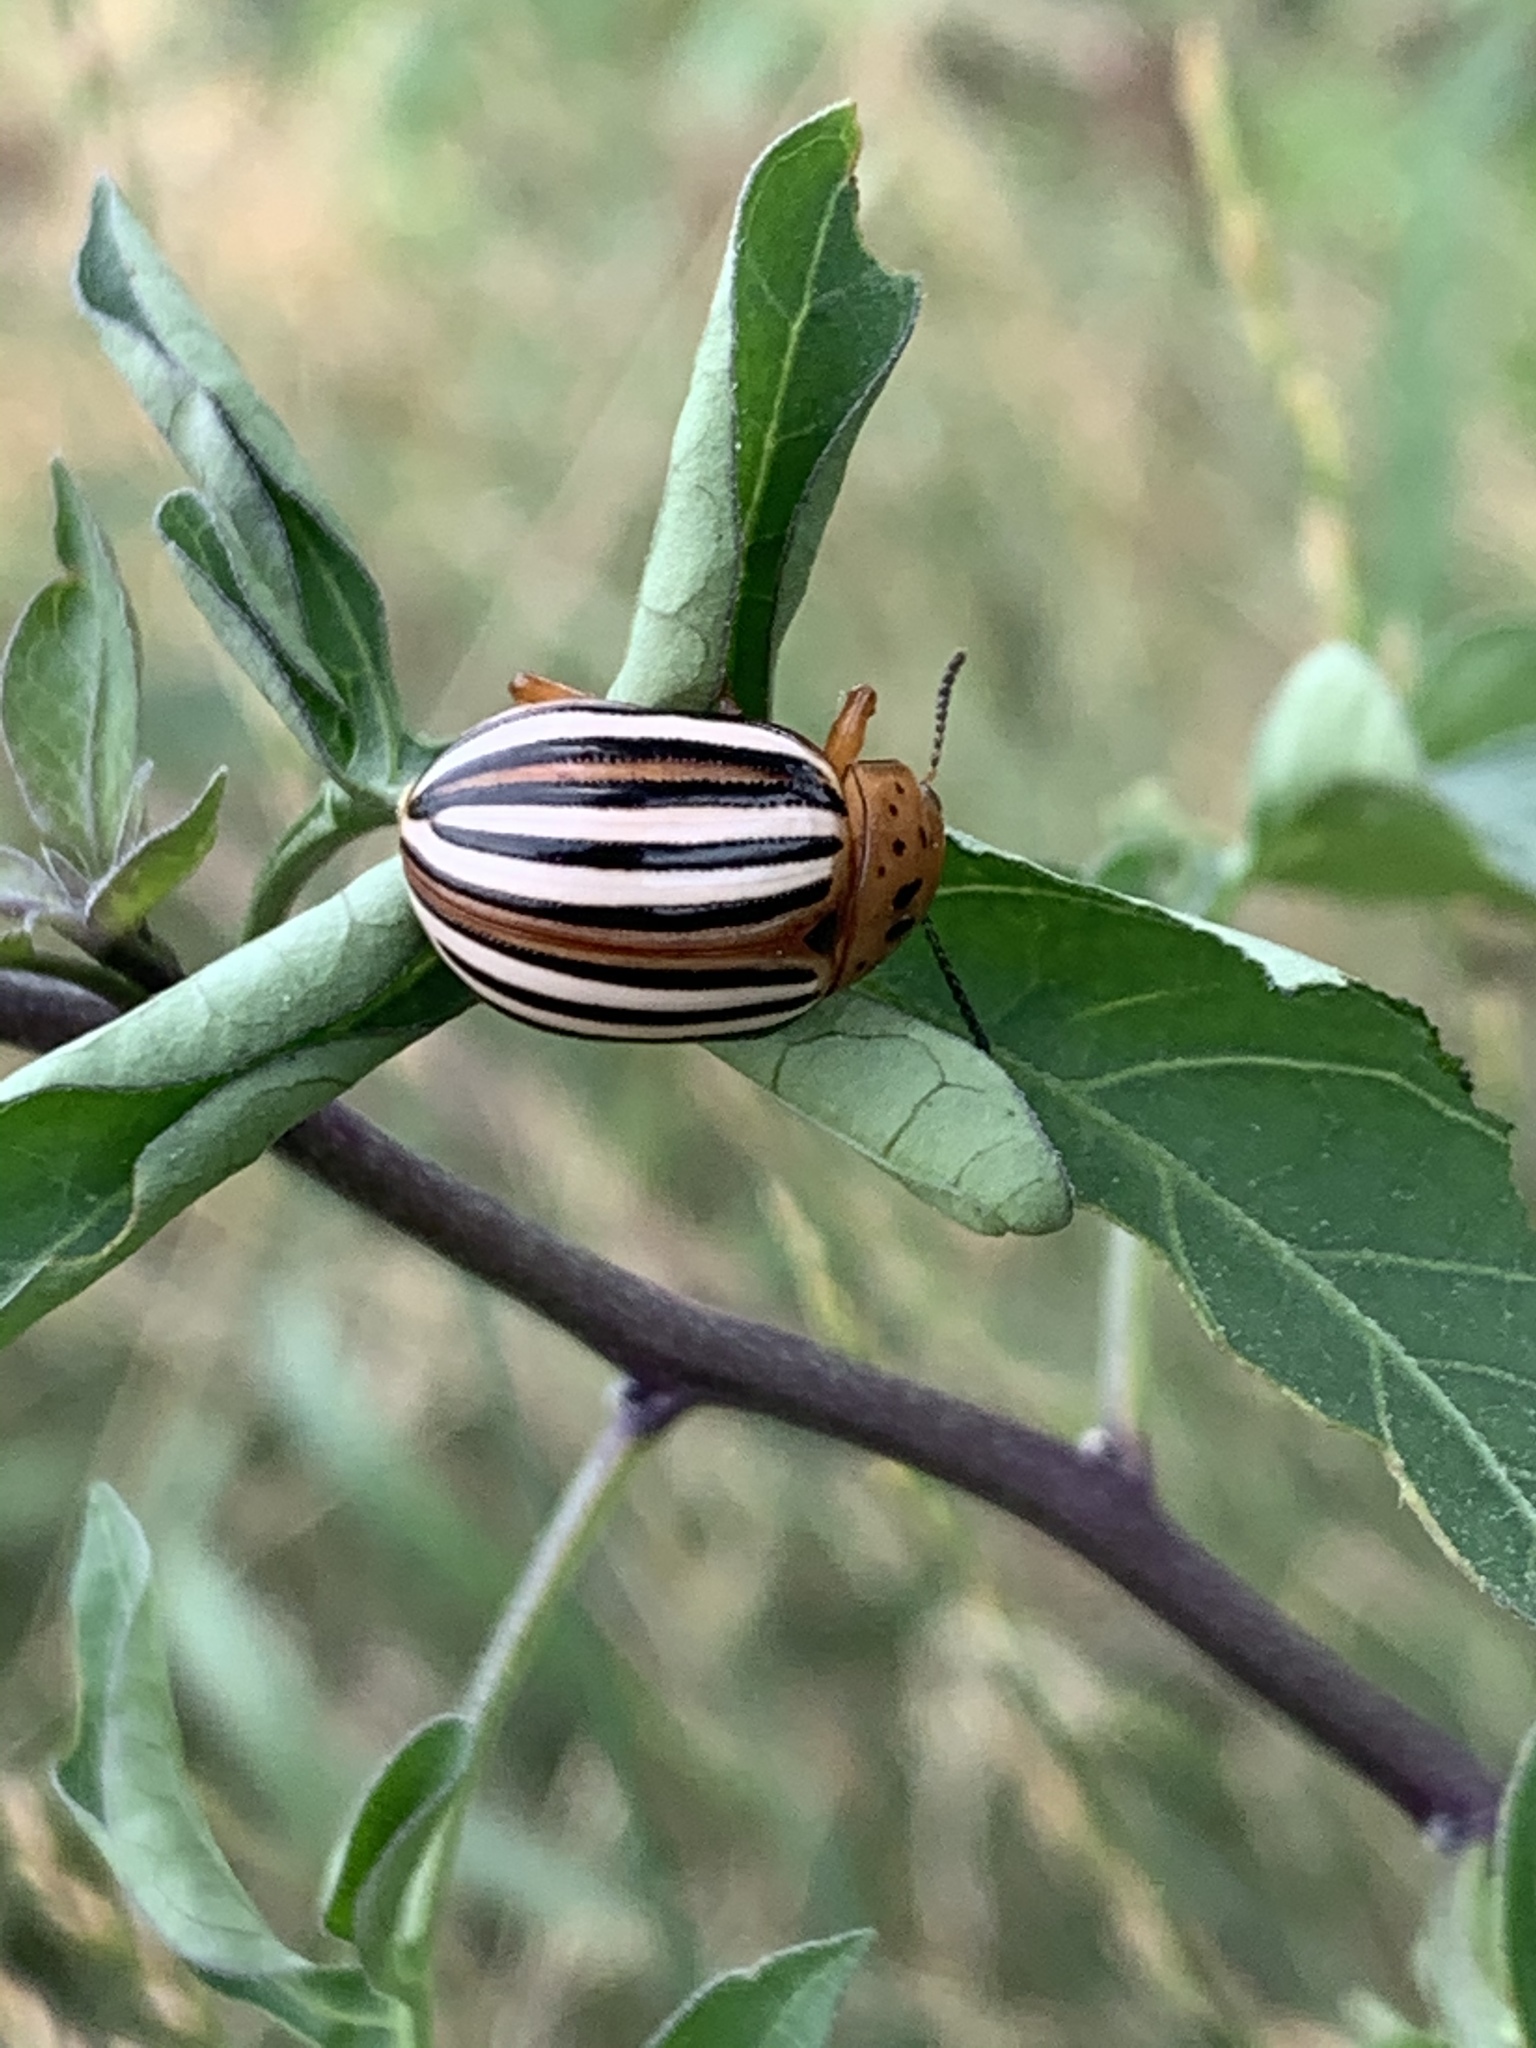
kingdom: Animalia
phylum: Arthropoda
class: Insecta
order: Coleoptera
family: Chrysomelidae
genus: Leptinotarsa
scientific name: Leptinotarsa juncta
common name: False potato beetle
